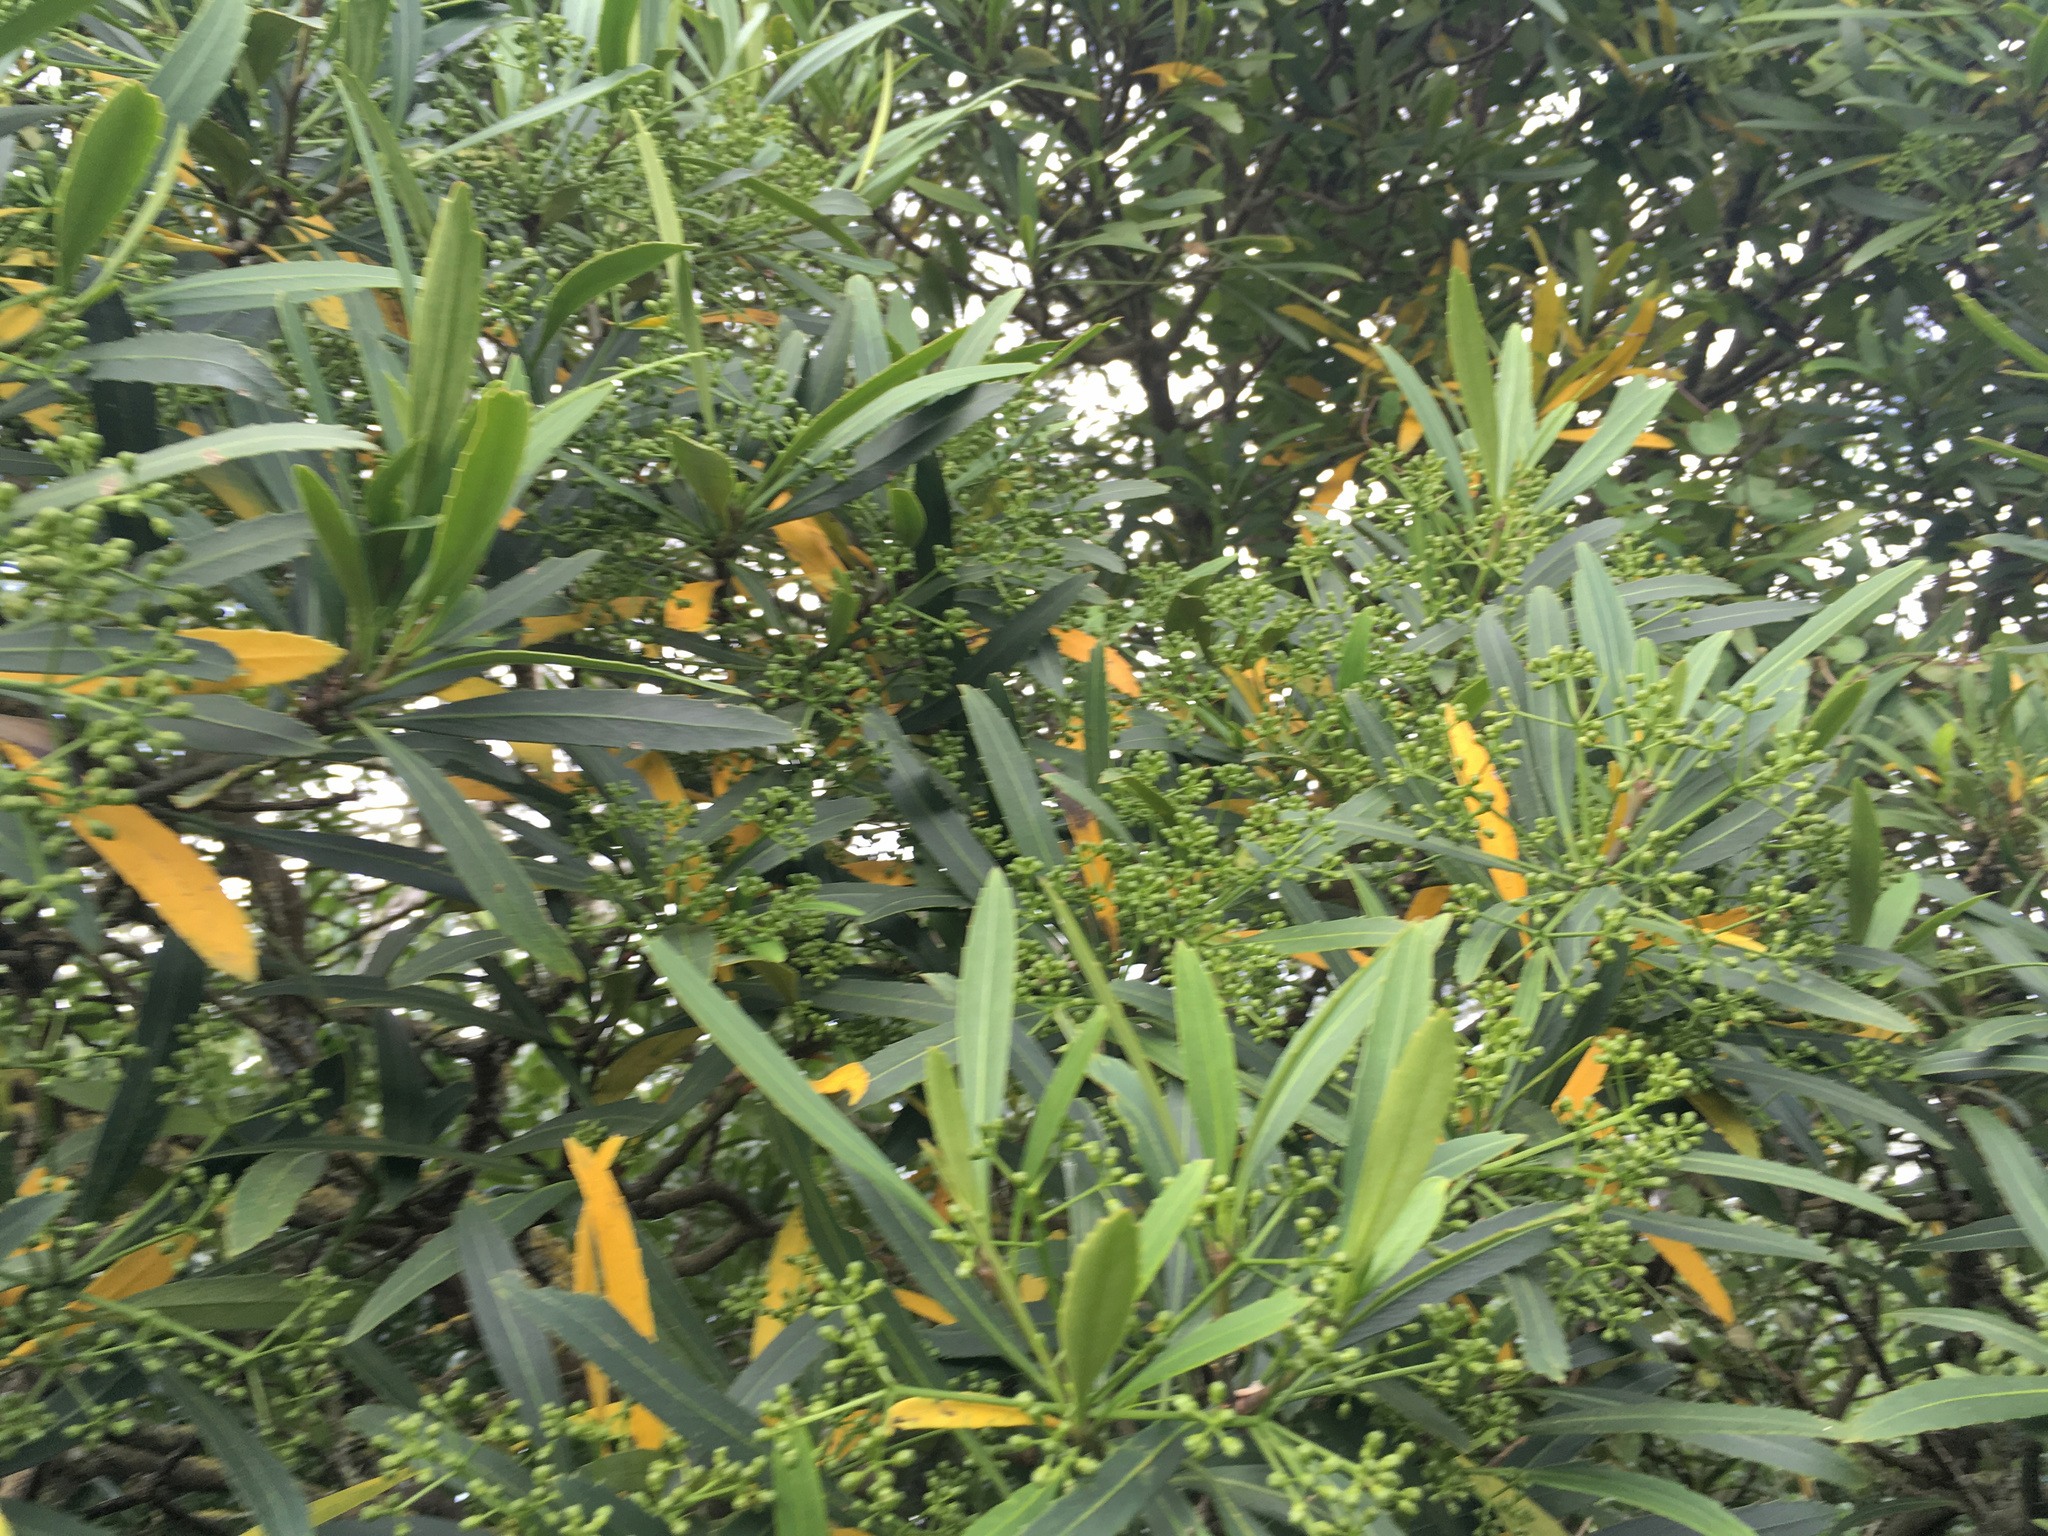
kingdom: Plantae
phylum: Tracheophyta
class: Magnoliopsida
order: Apiales
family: Araliaceae
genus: Pseudopanax
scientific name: Pseudopanax crassifolius
